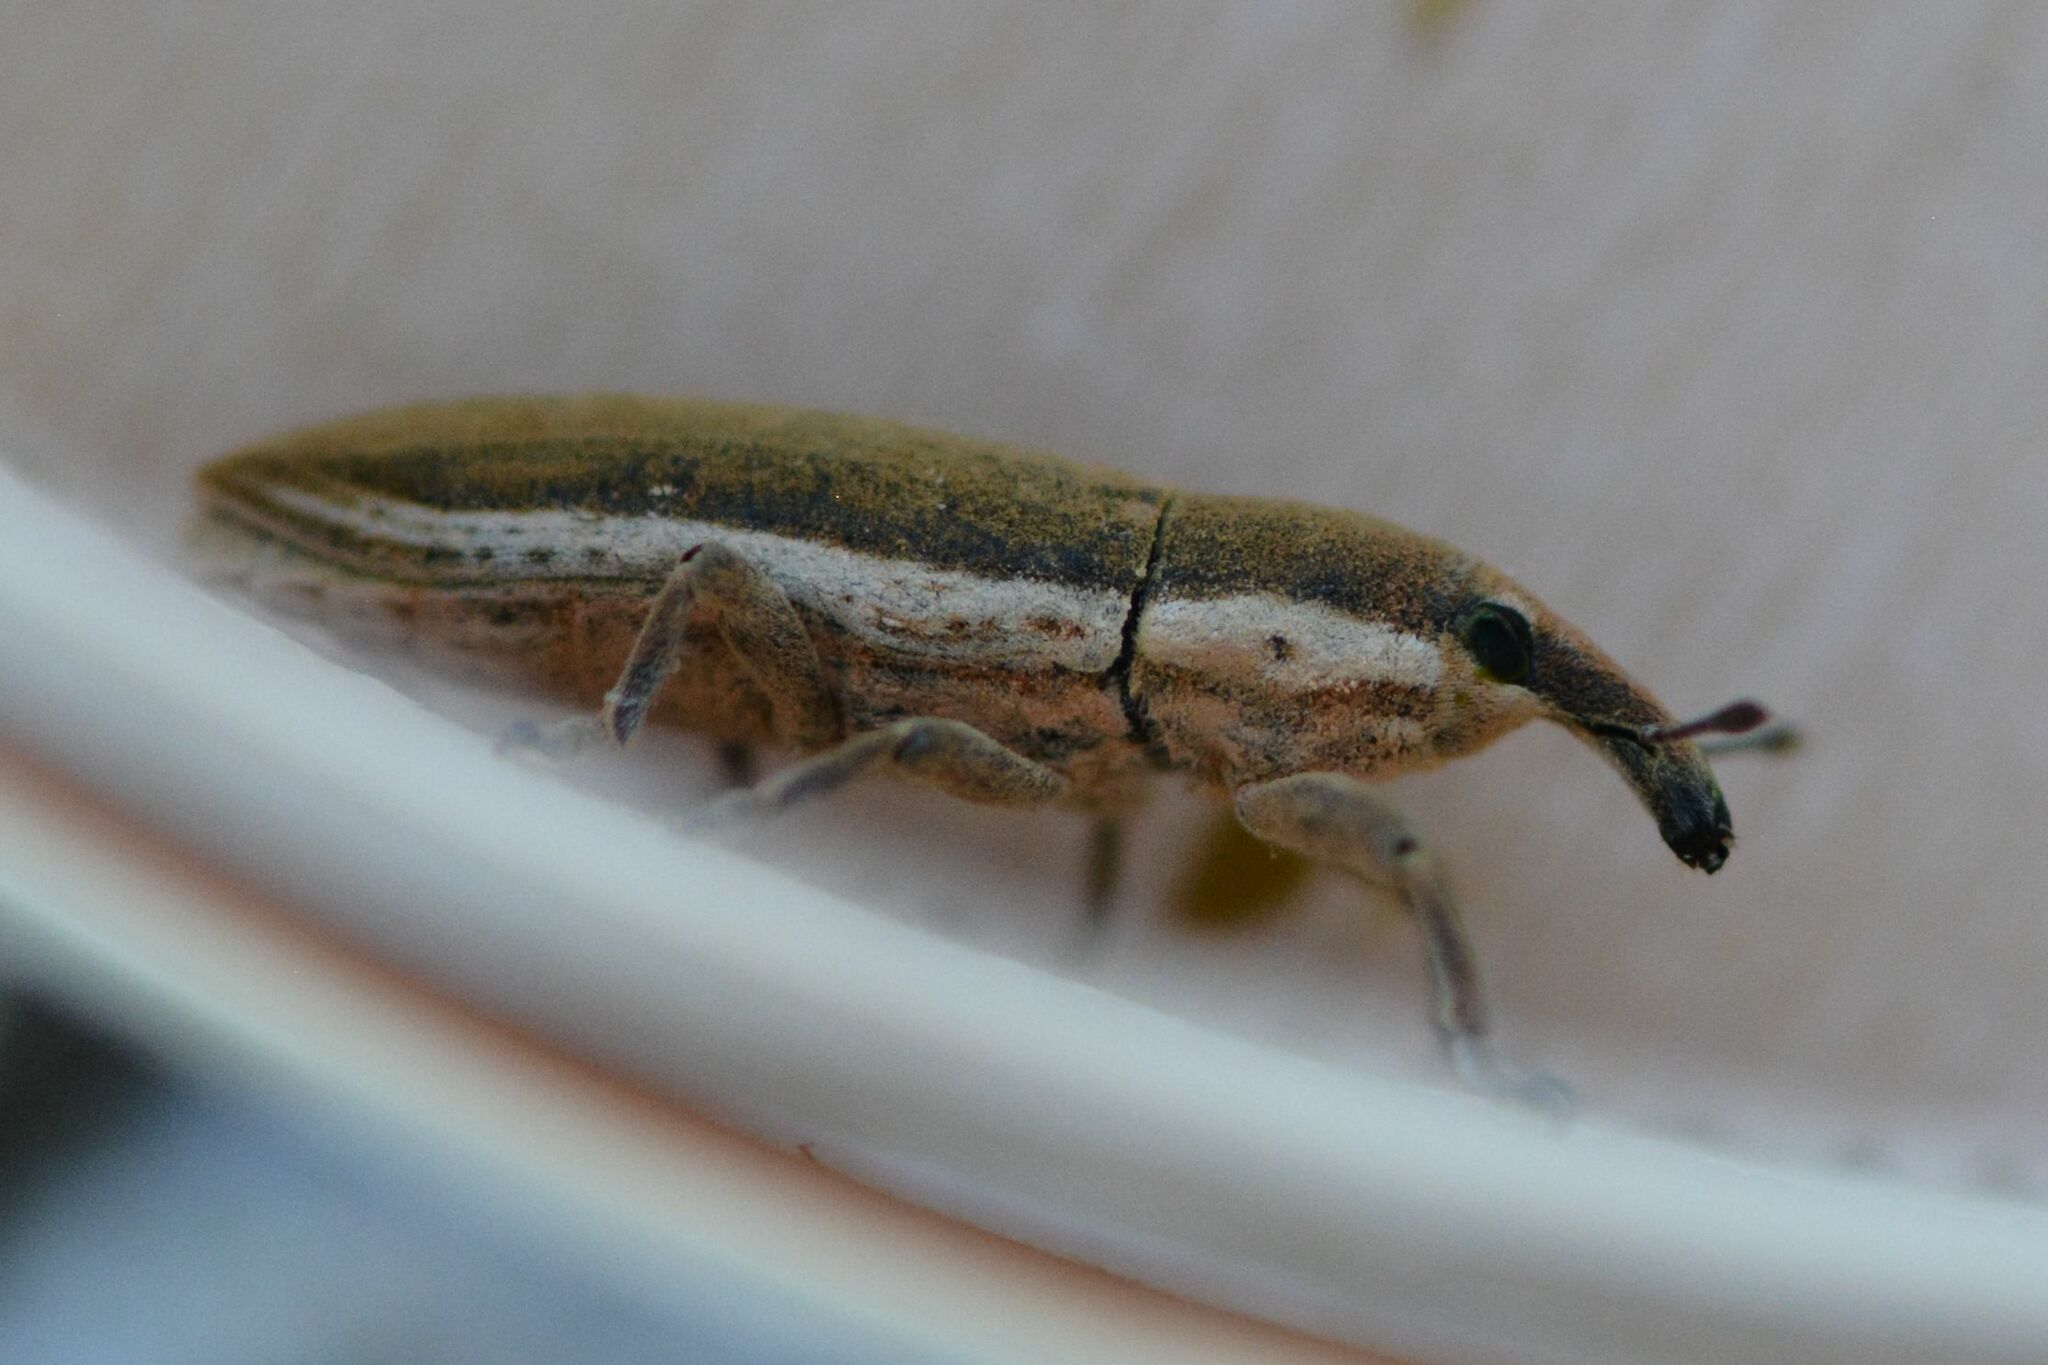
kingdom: Animalia
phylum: Arthropoda
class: Insecta
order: Coleoptera
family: Curculionidae
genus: Lixus
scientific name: Lixus juncii
